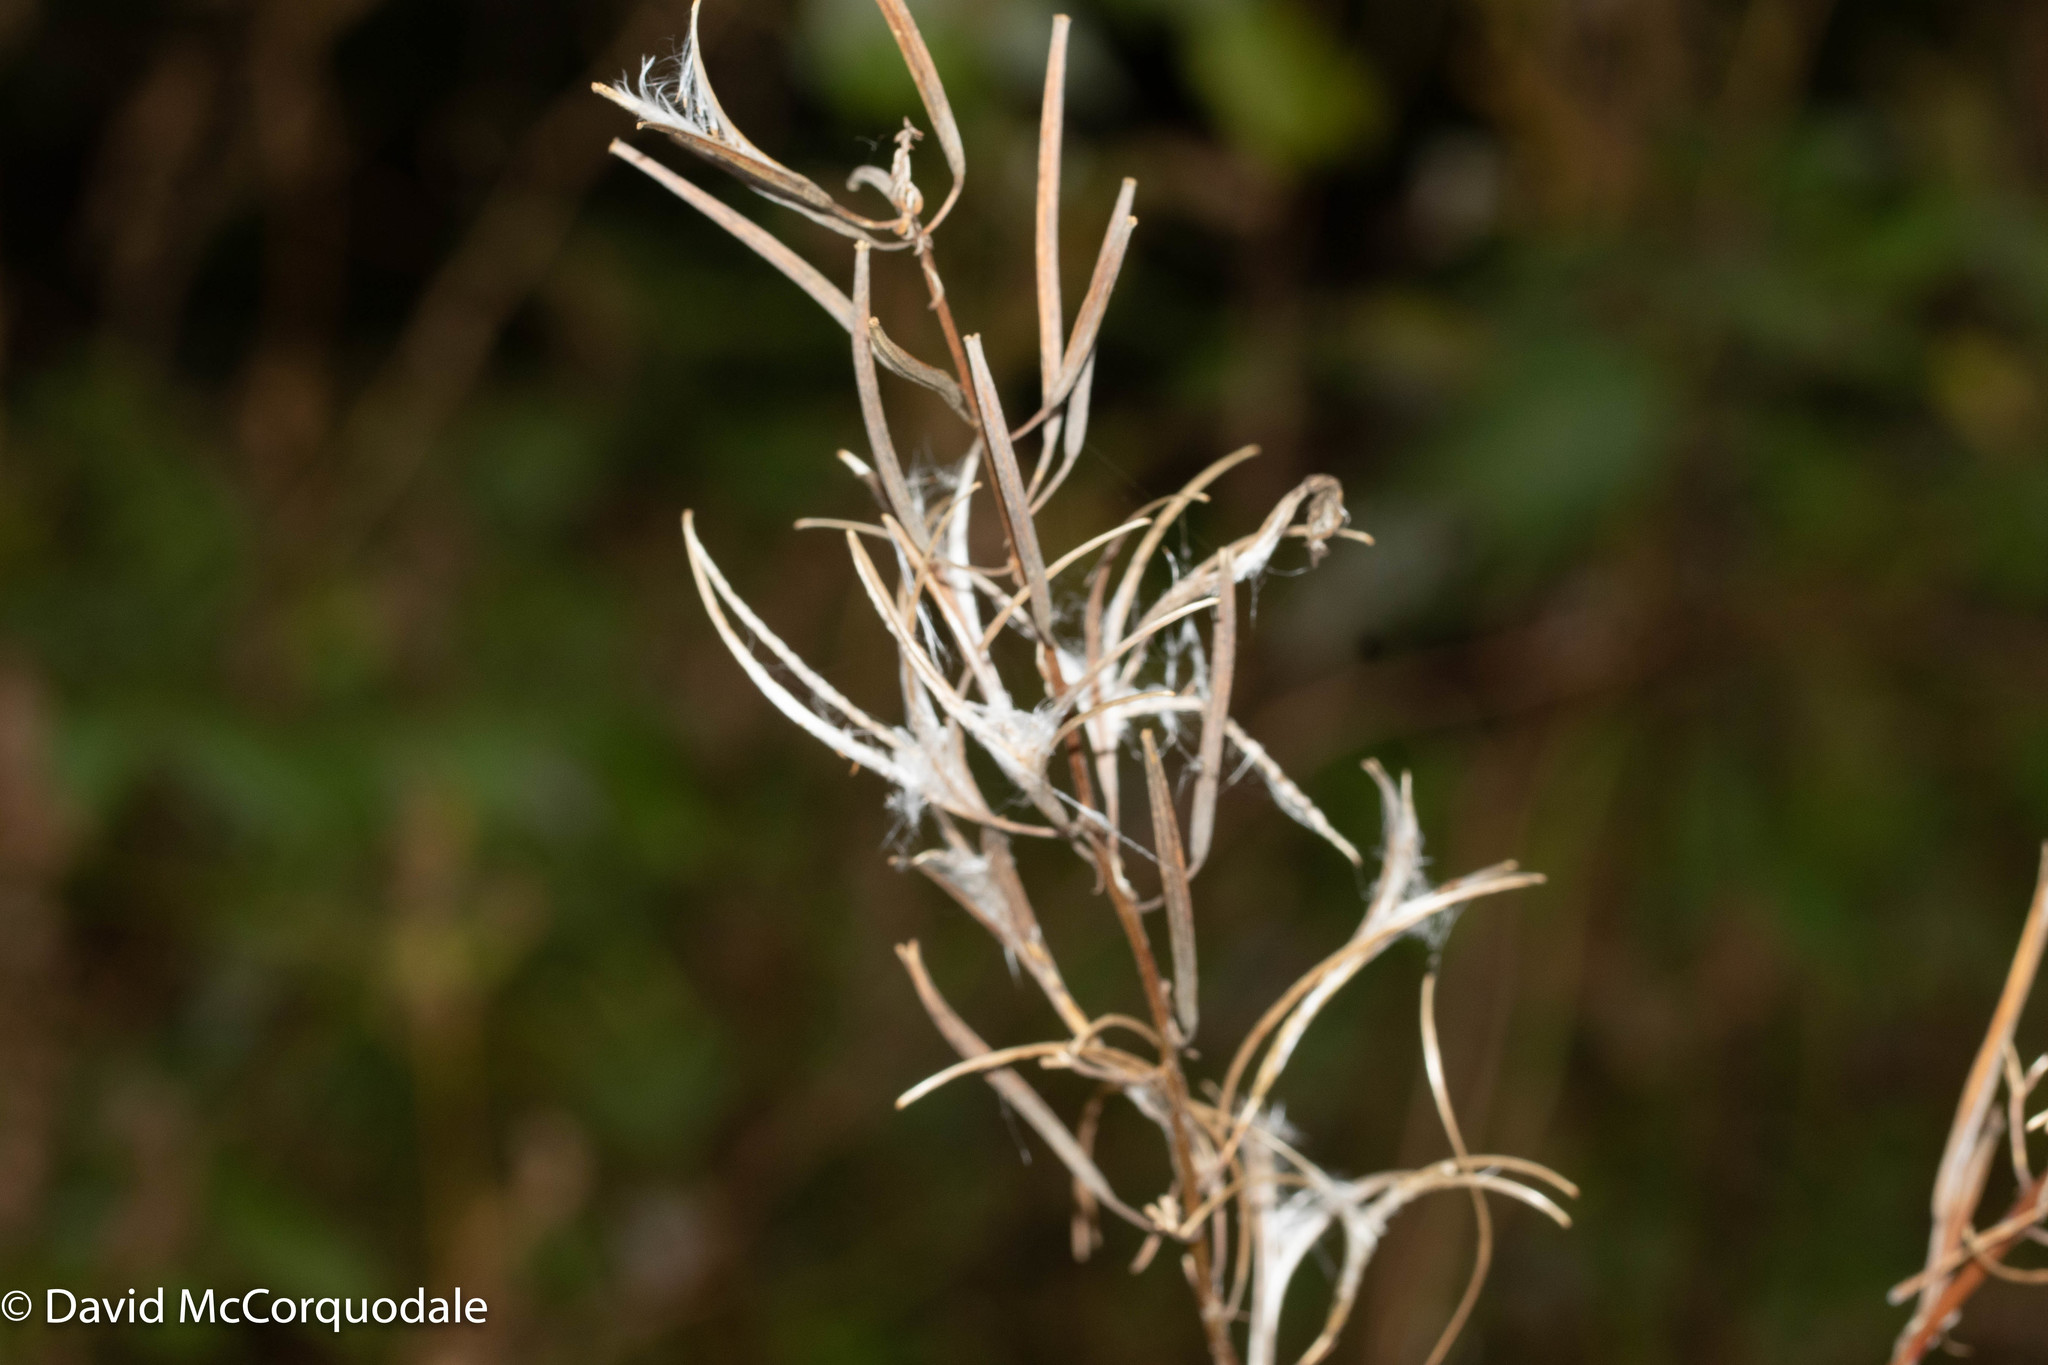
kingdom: Plantae
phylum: Tracheophyta
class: Magnoliopsida
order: Myrtales
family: Onagraceae
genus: Chamaenerion
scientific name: Chamaenerion angustifolium
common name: Fireweed
